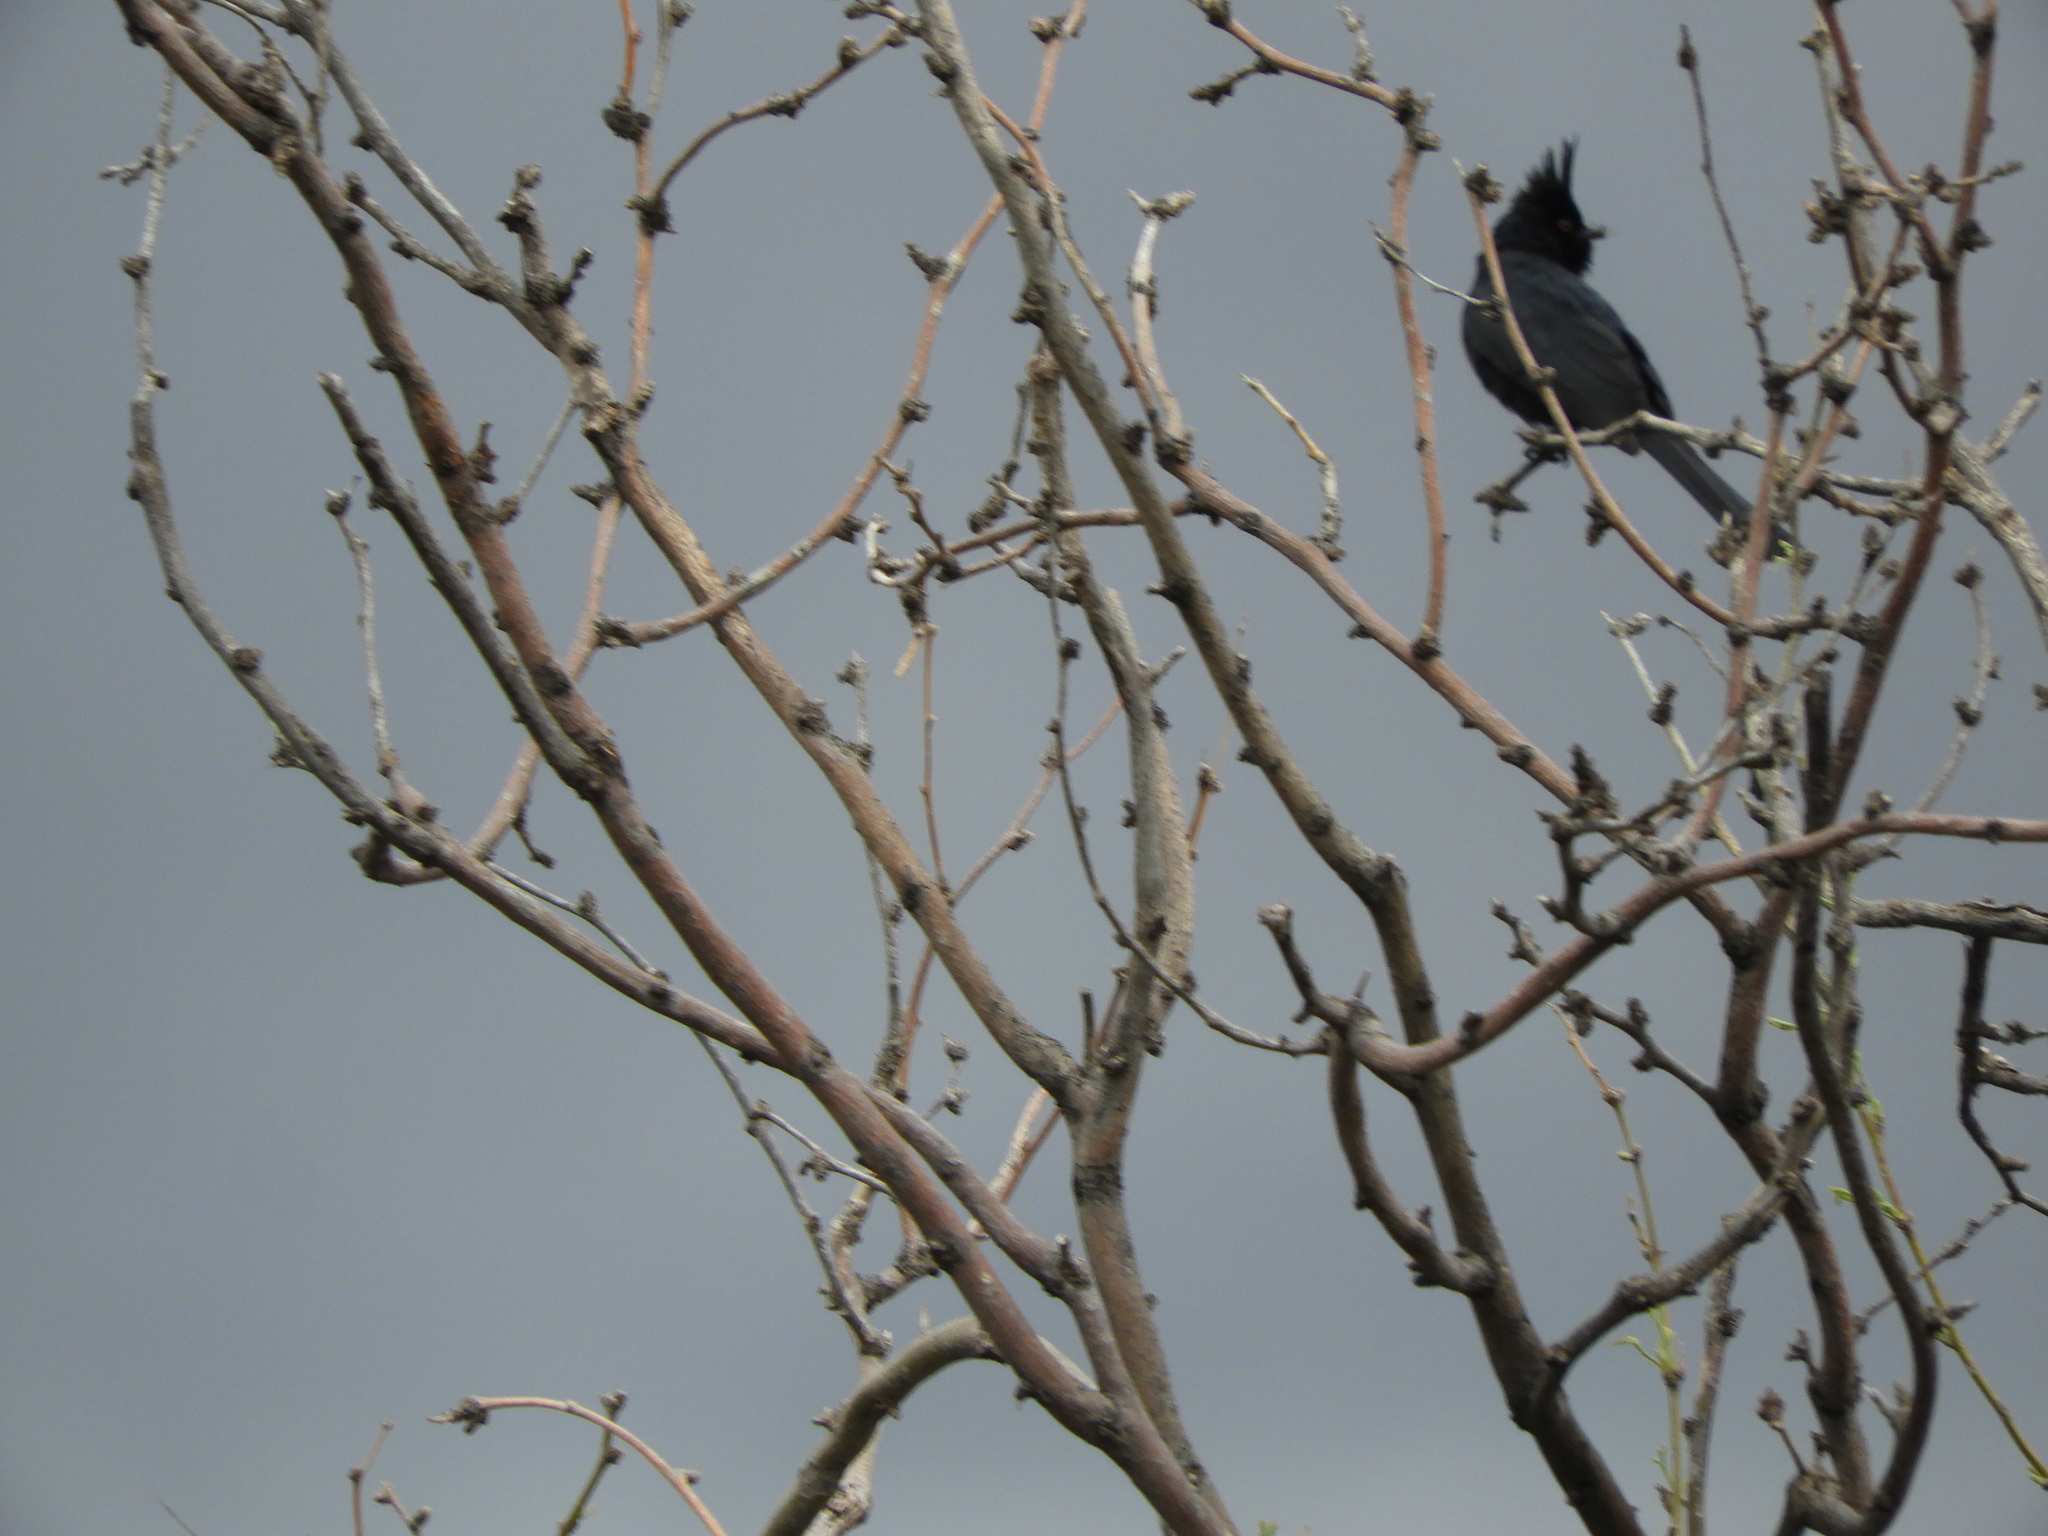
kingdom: Animalia
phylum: Chordata
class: Aves
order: Passeriformes
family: Ptilogonatidae
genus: Phainopepla
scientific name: Phainopepla nitens
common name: Phainopepla
